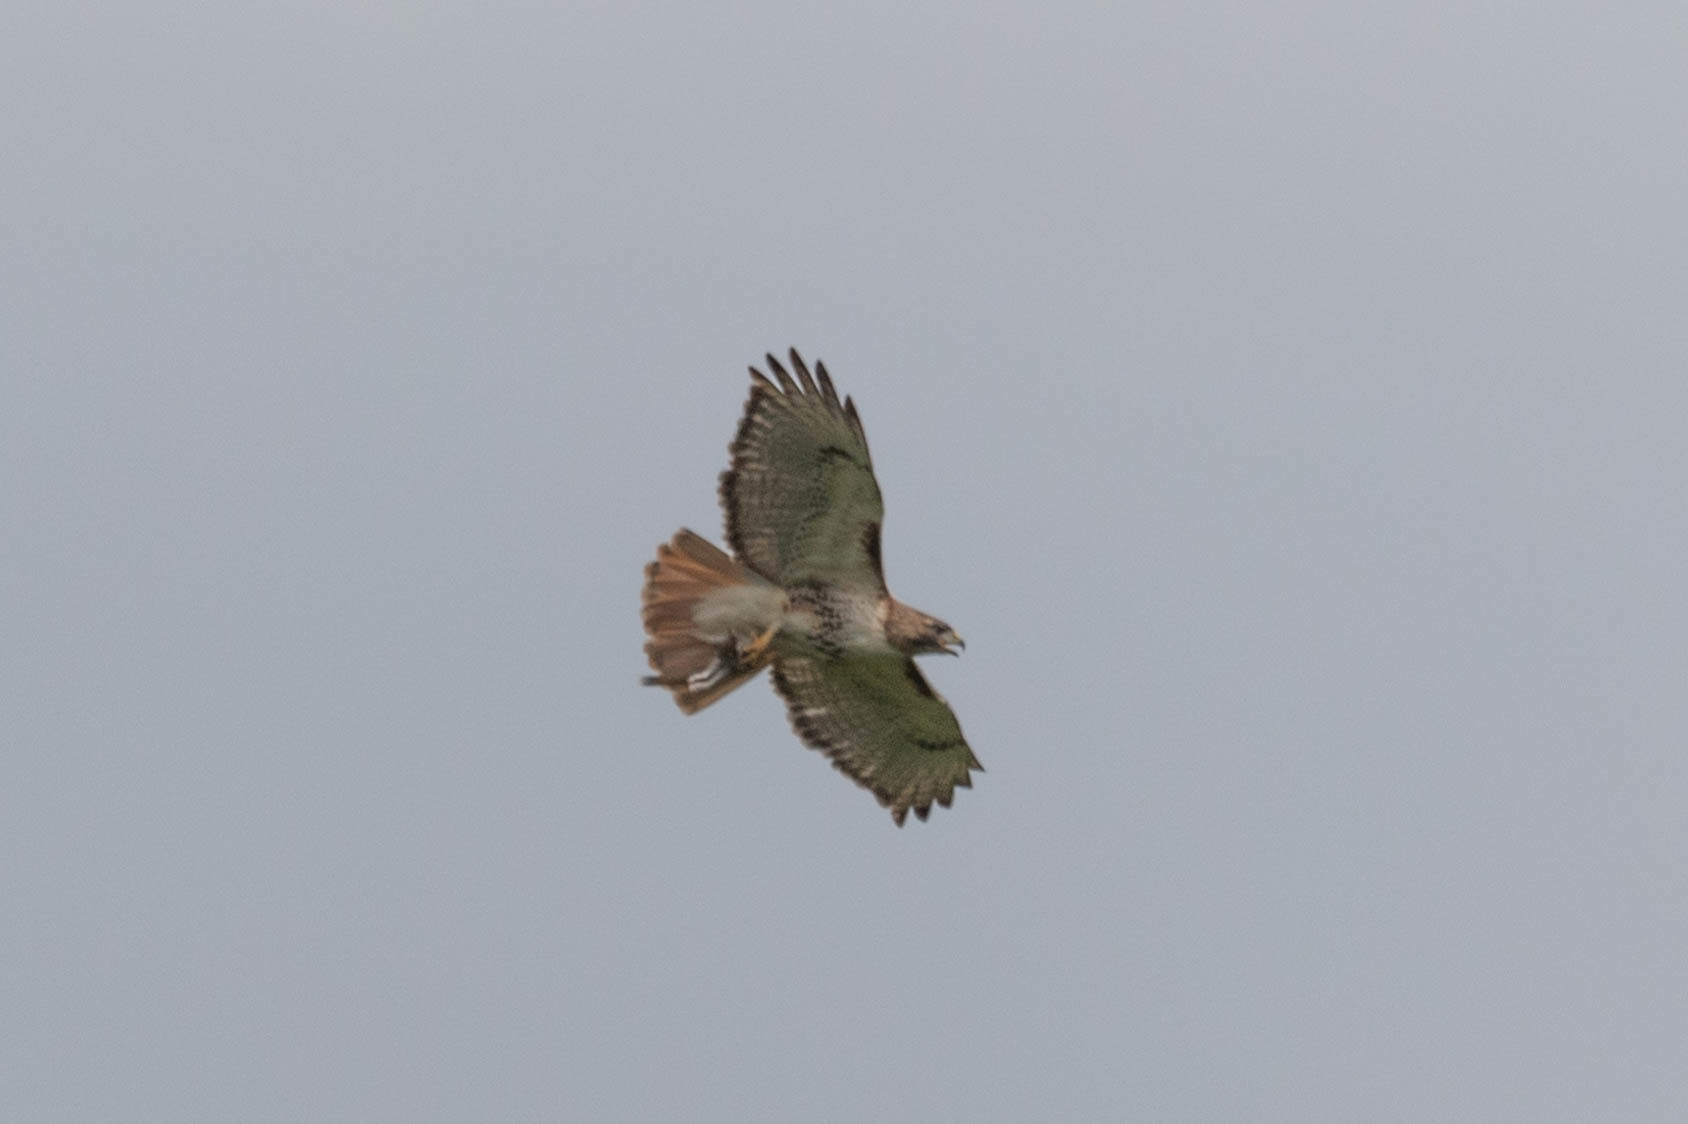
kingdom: Animalia
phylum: Chordata
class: Aves
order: Accipitriformes
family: Accipitridae
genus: Buteo
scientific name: Buteo jamaicensis
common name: Red-tailed hawk
